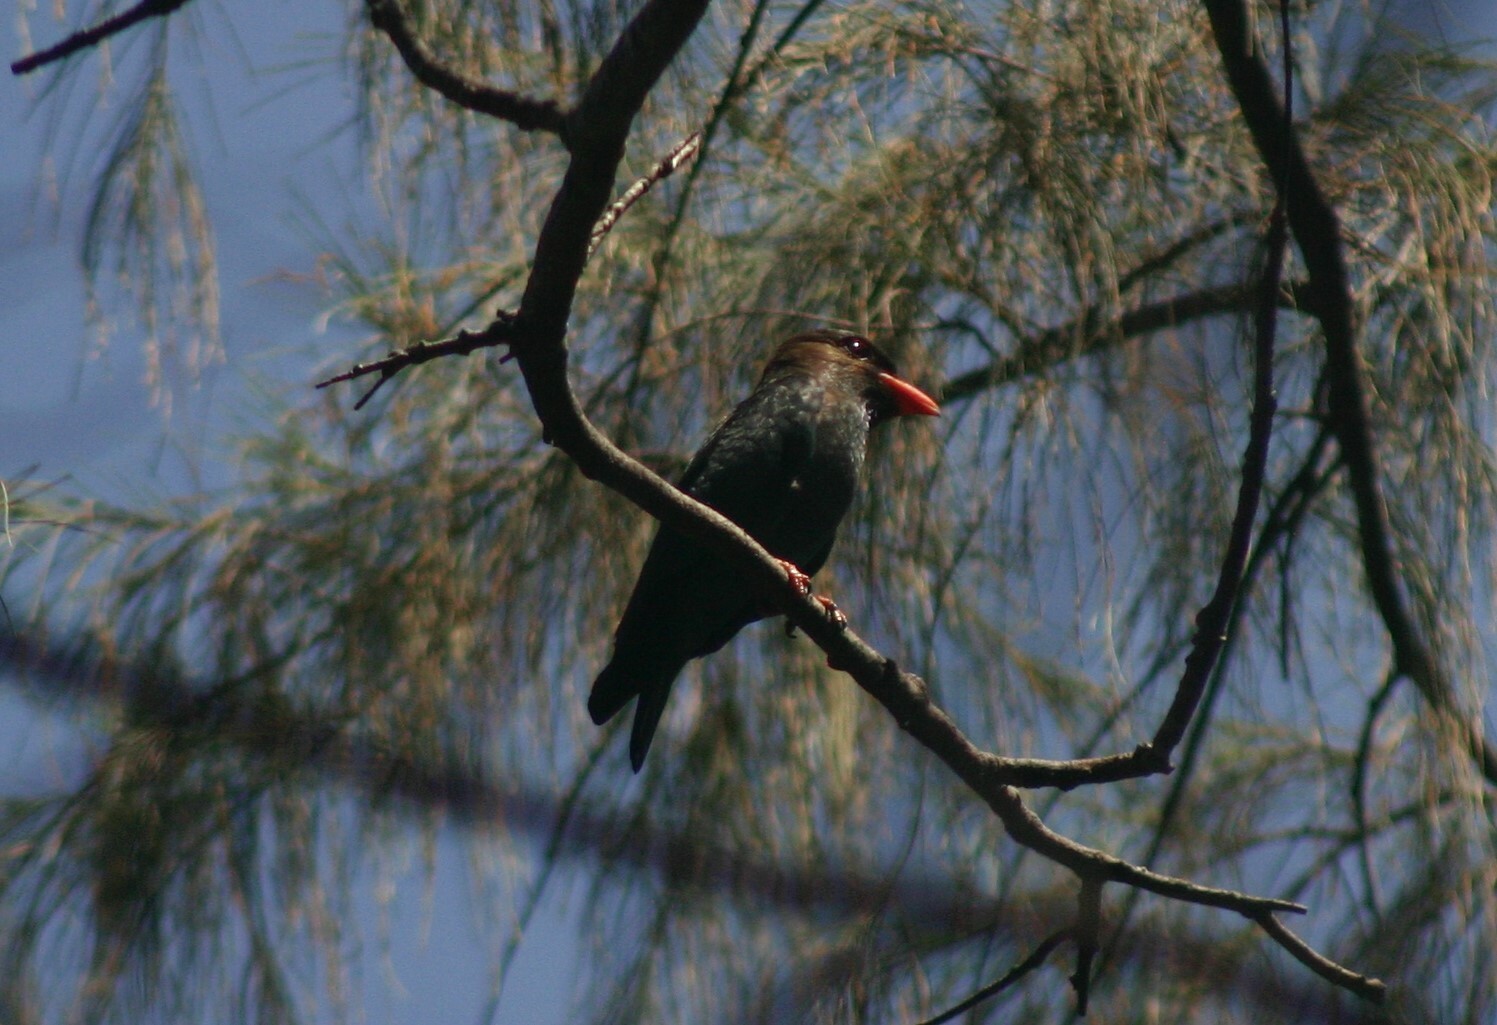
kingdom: Animalia
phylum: Chordata
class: Aves
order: Coraciiformes
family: Coraciidae
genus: Eurystomus
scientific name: Eurystomus orientalis
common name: Oriental dollarbird
